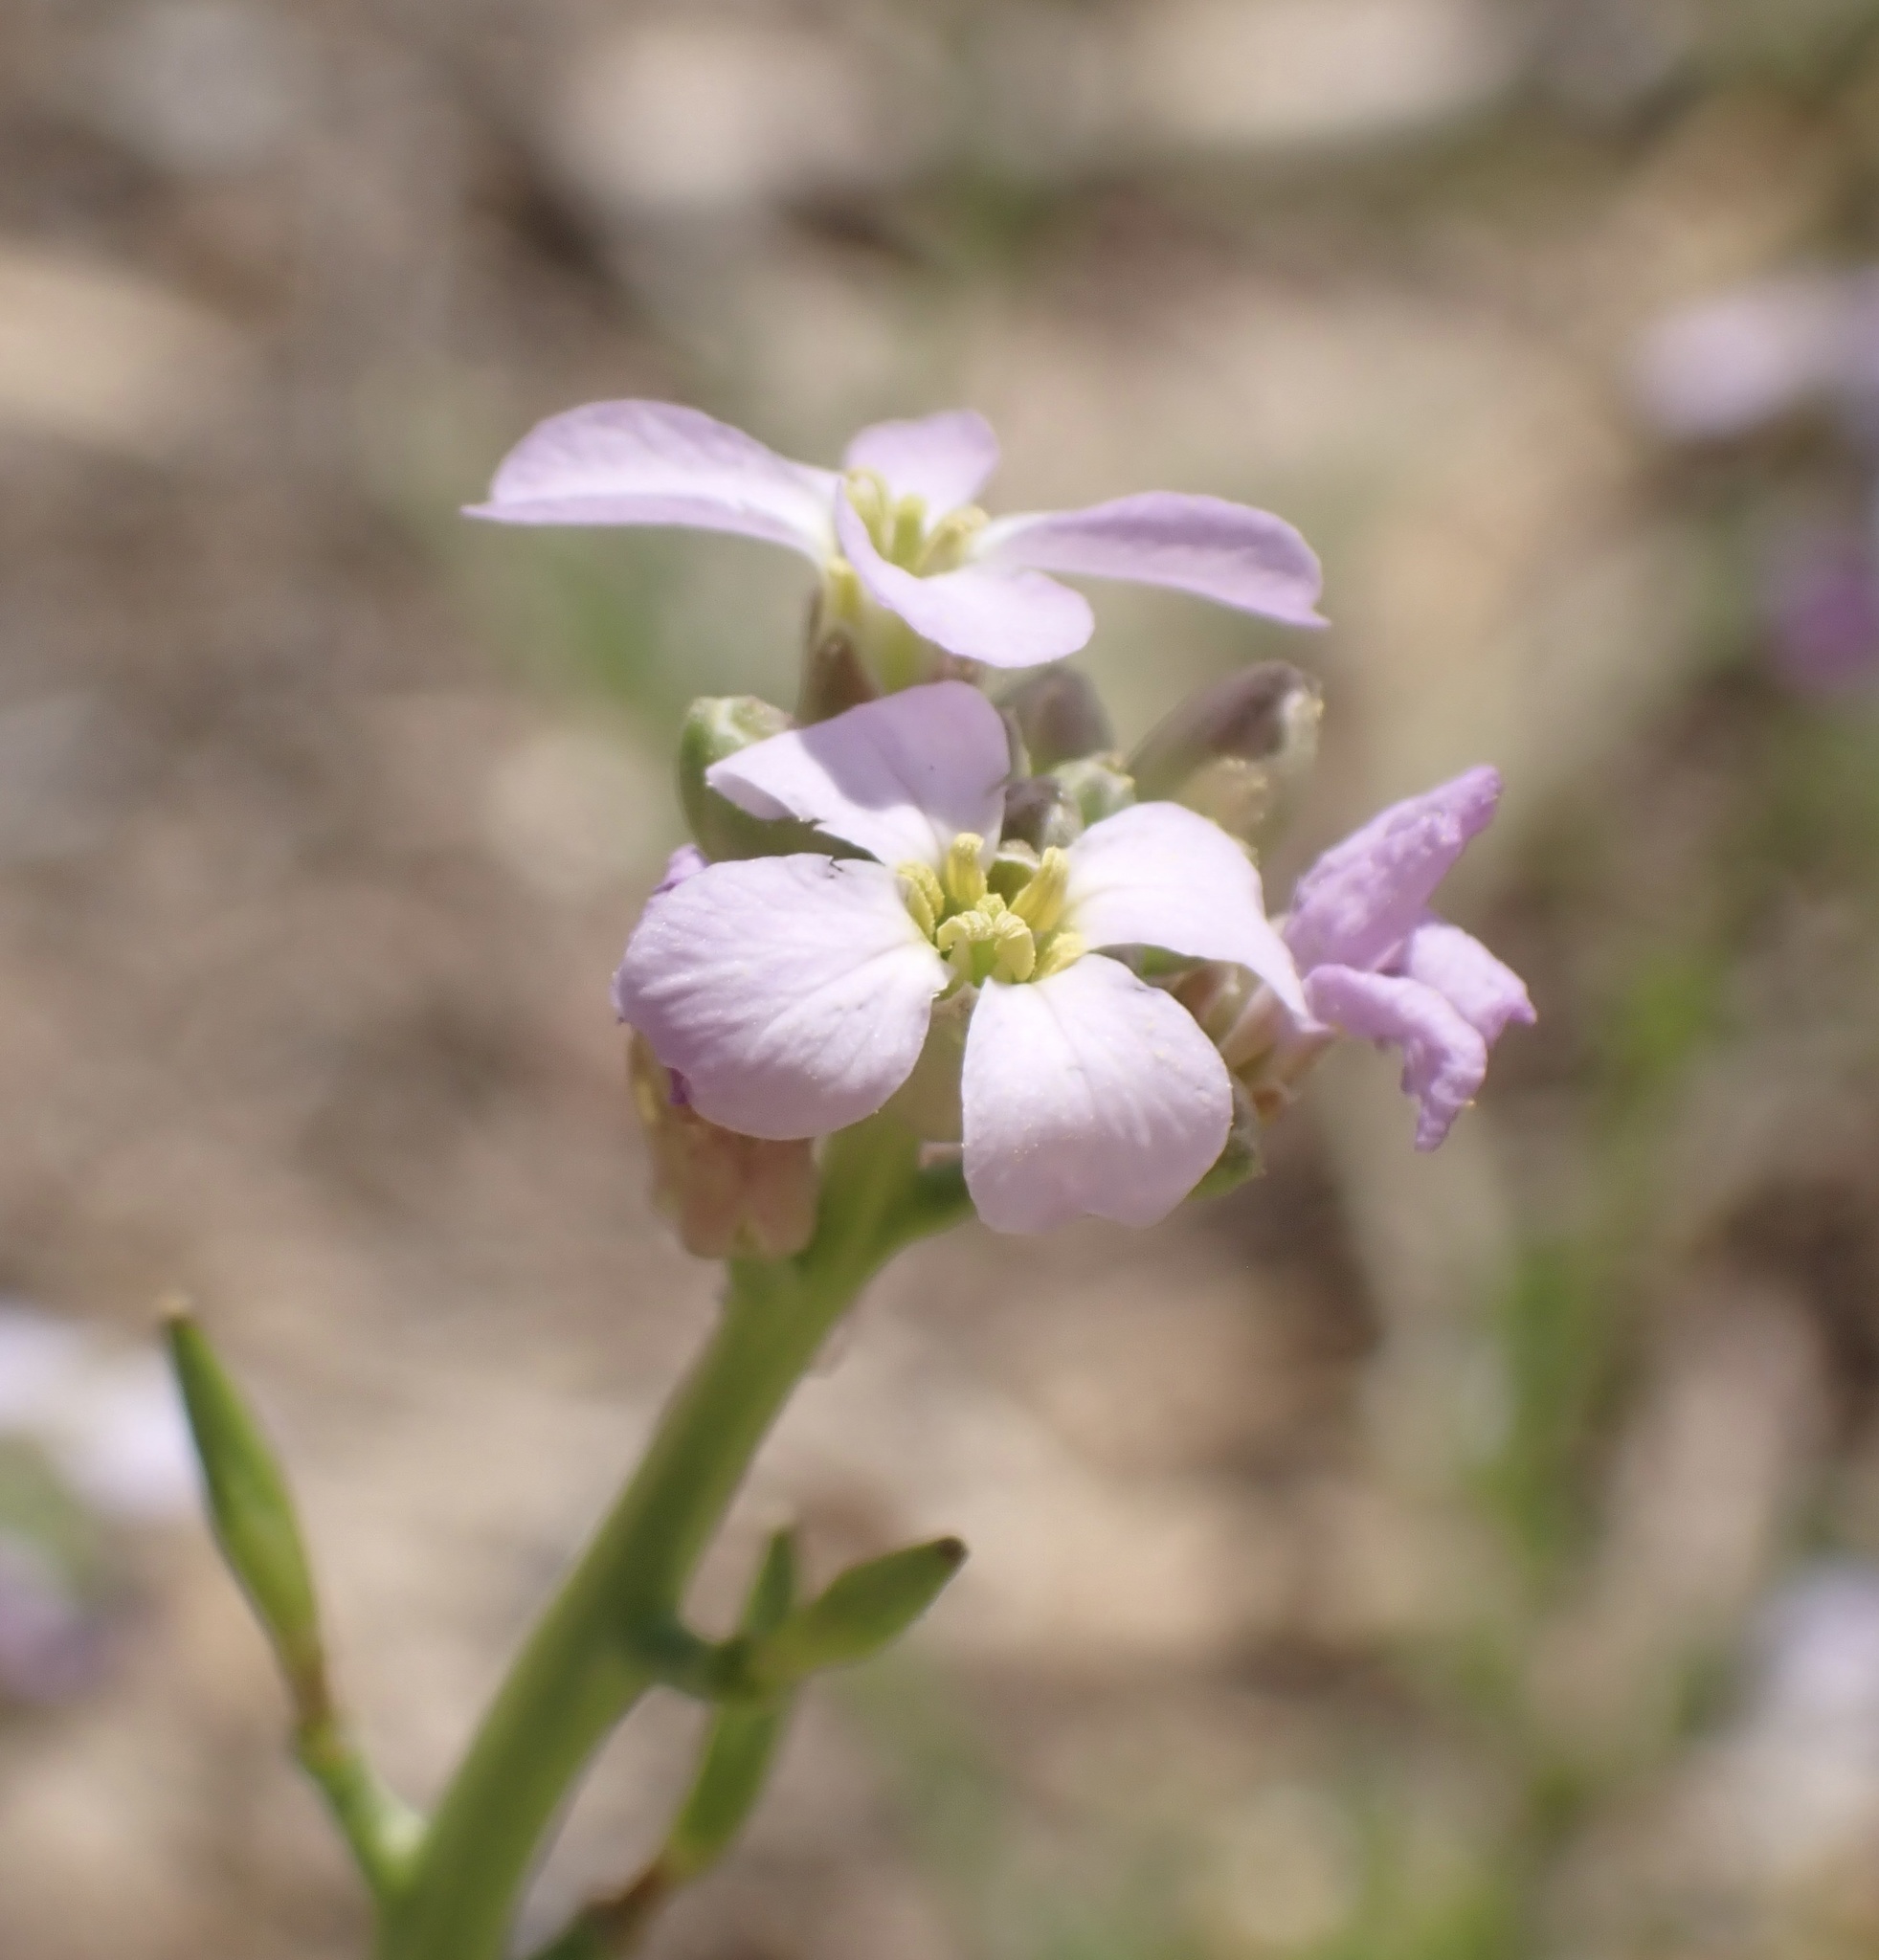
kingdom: Plantae
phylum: Tracheophyta
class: Magnoliopsida
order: Brassicales
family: Brassicaceae
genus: Cakile
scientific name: Cakile maritima
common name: Sea rocket
